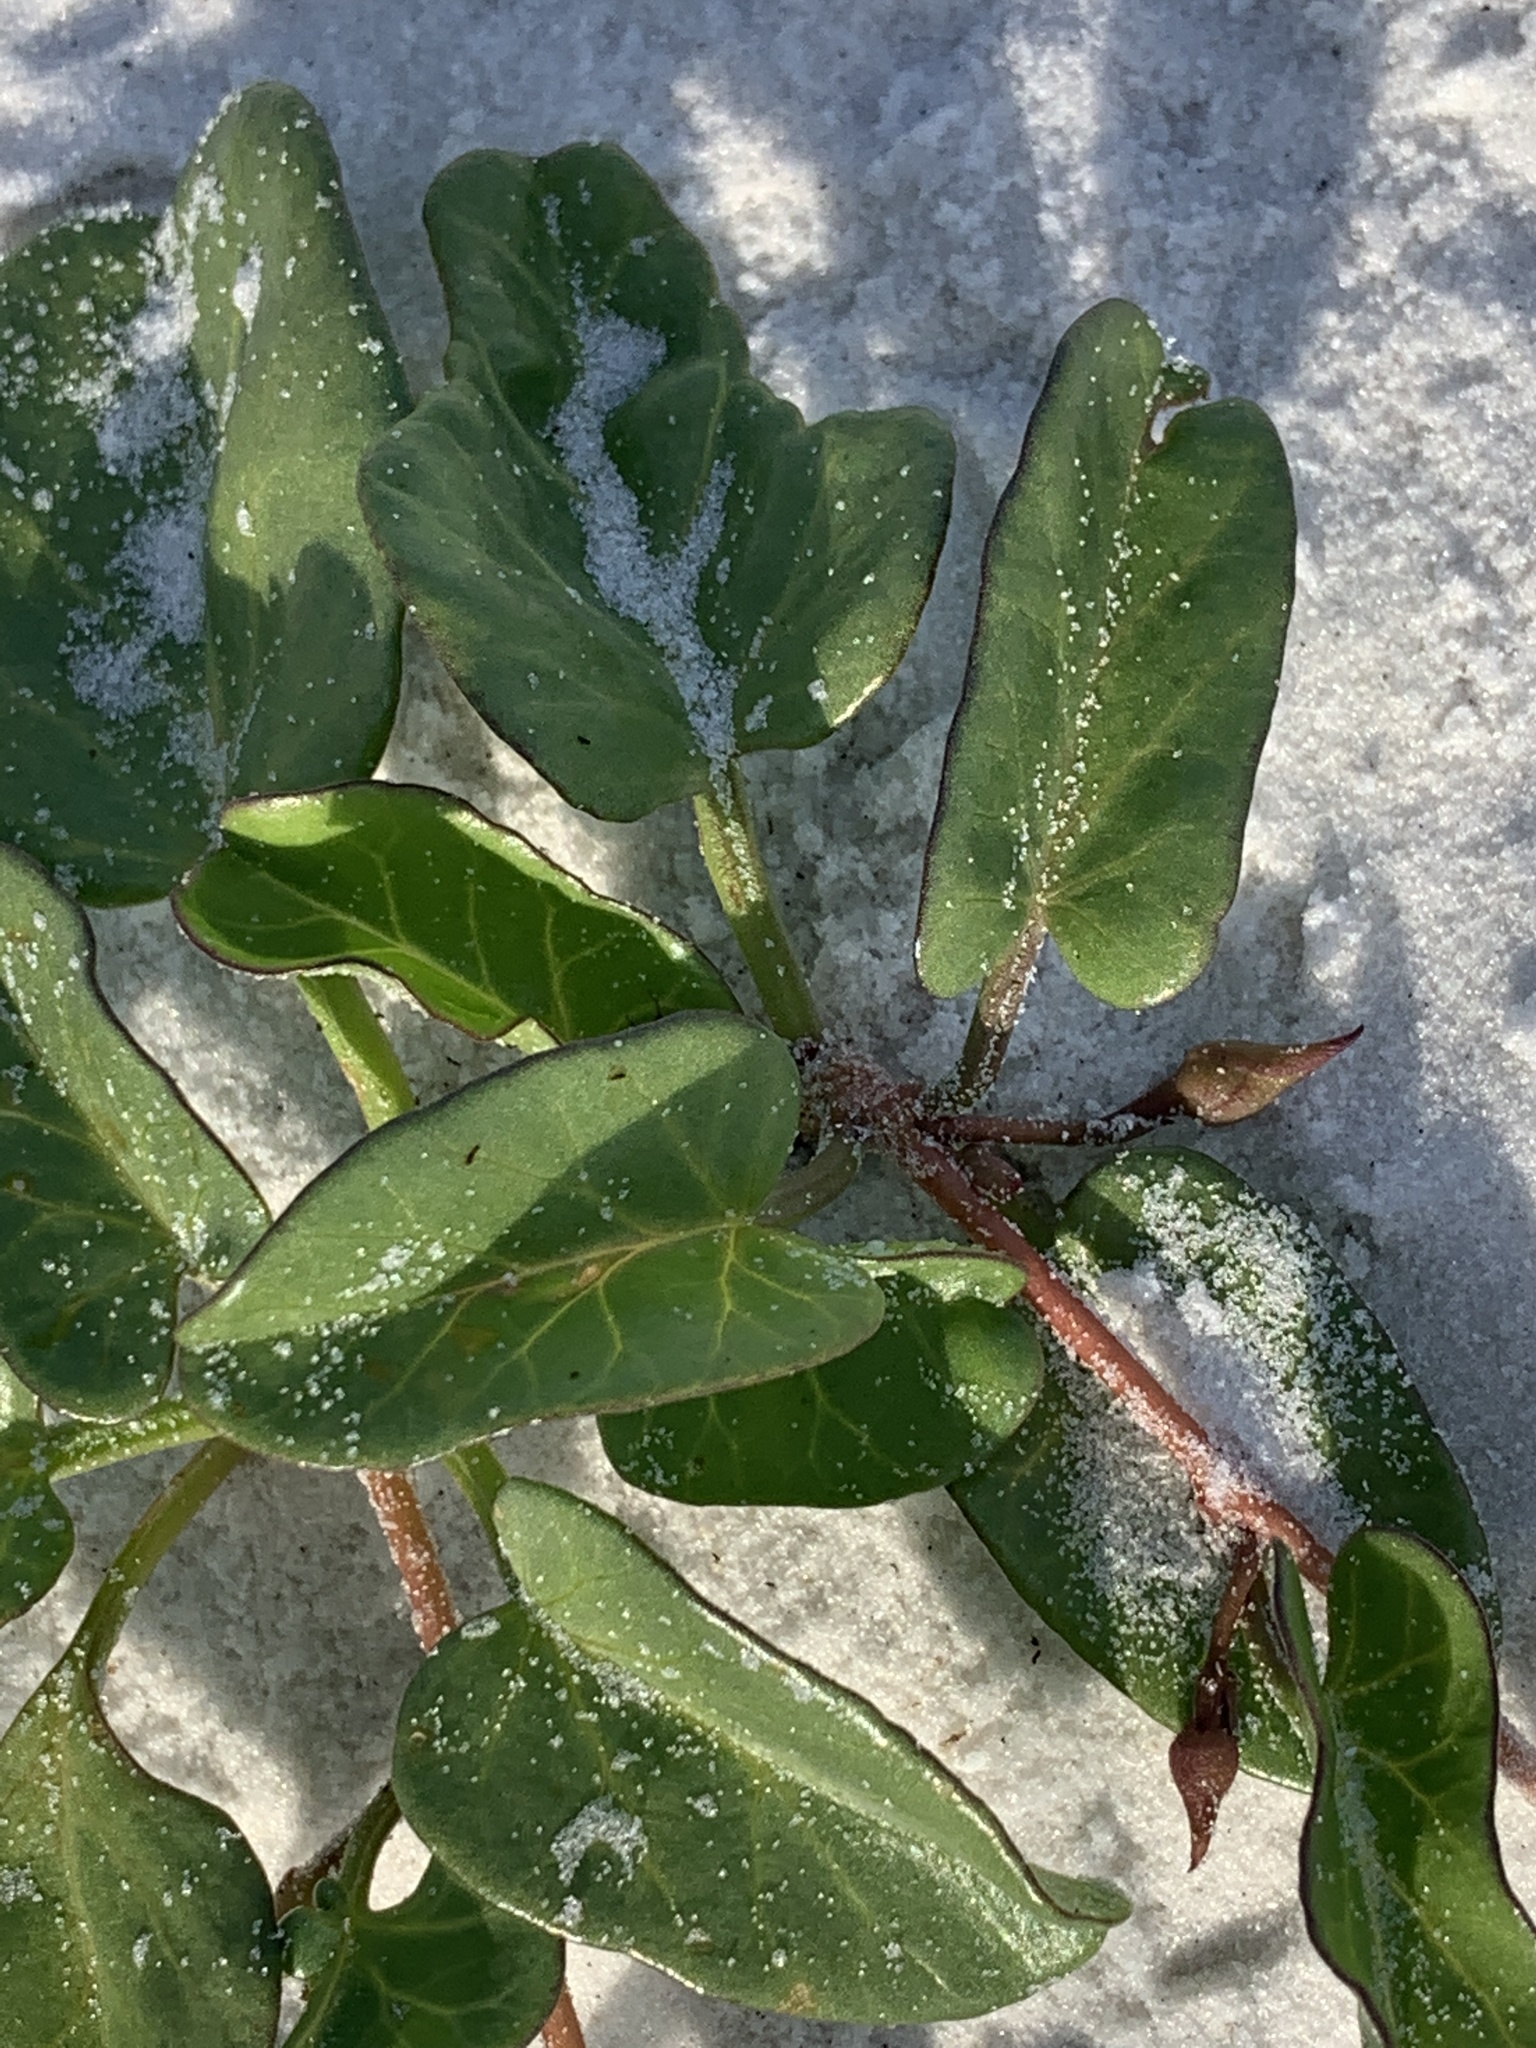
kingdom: Plantae
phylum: Tracheophyta
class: Magnoliopsida
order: Solanales
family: Convolvulaceae
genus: Ipomoea
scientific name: Ipomoea imperati
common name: Fiddle-leaf morning-glory
